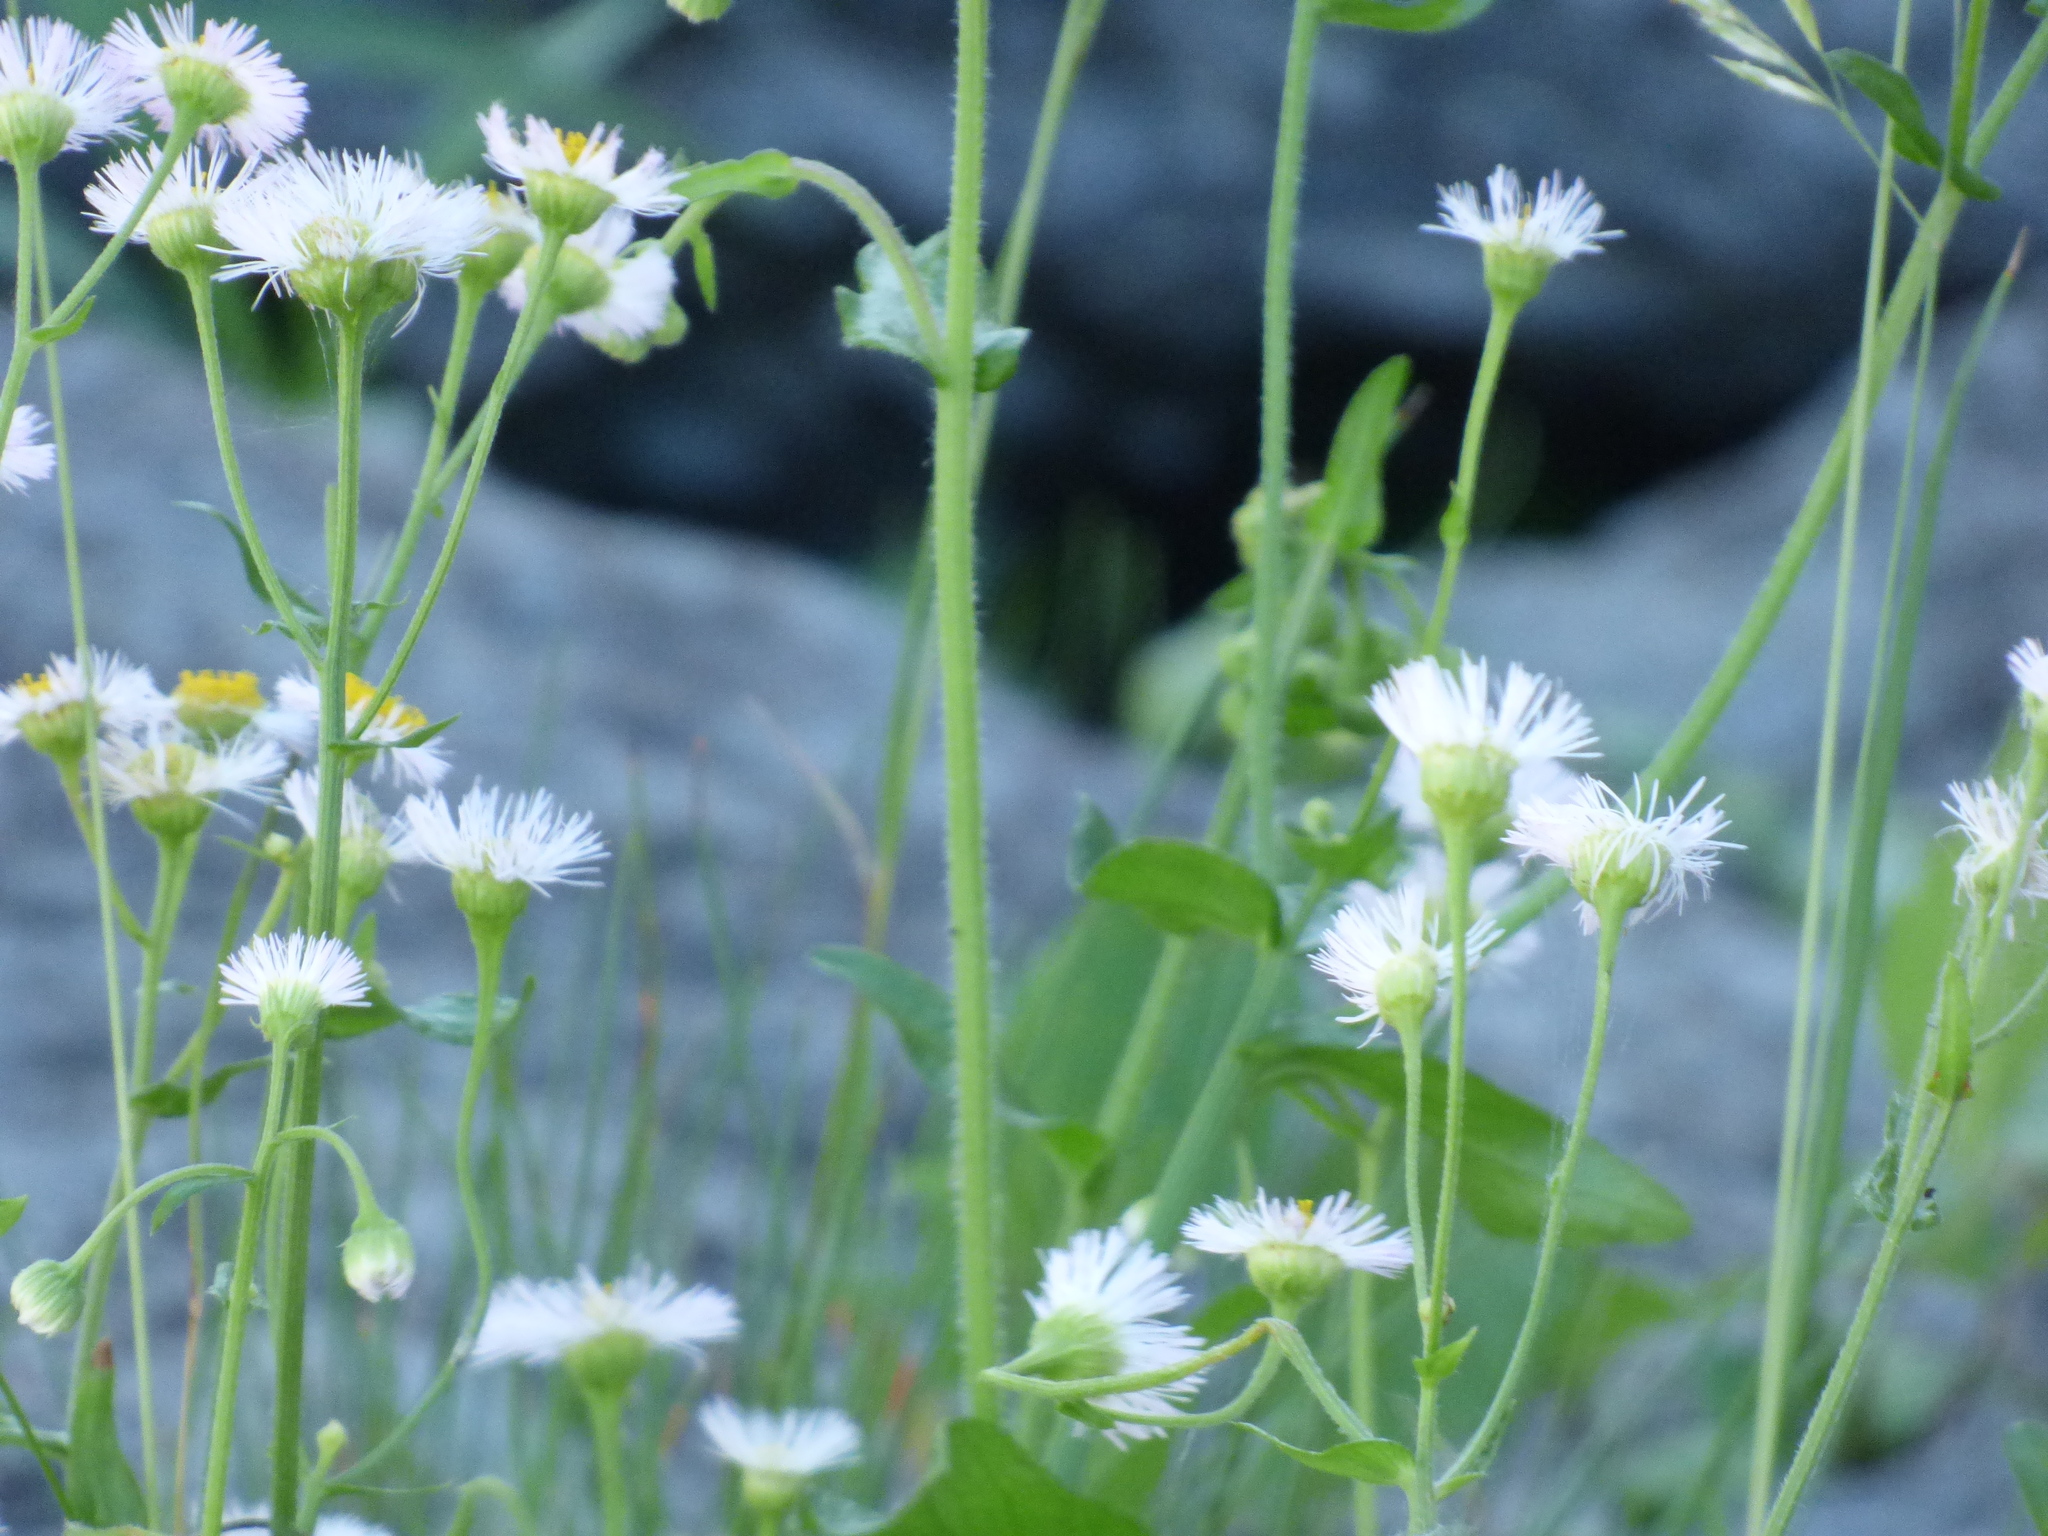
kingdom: Plantae
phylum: Tracheophyta
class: Magnoliopsida
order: Asterales
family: Asteraceae
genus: Erigeron
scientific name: Erigeron
